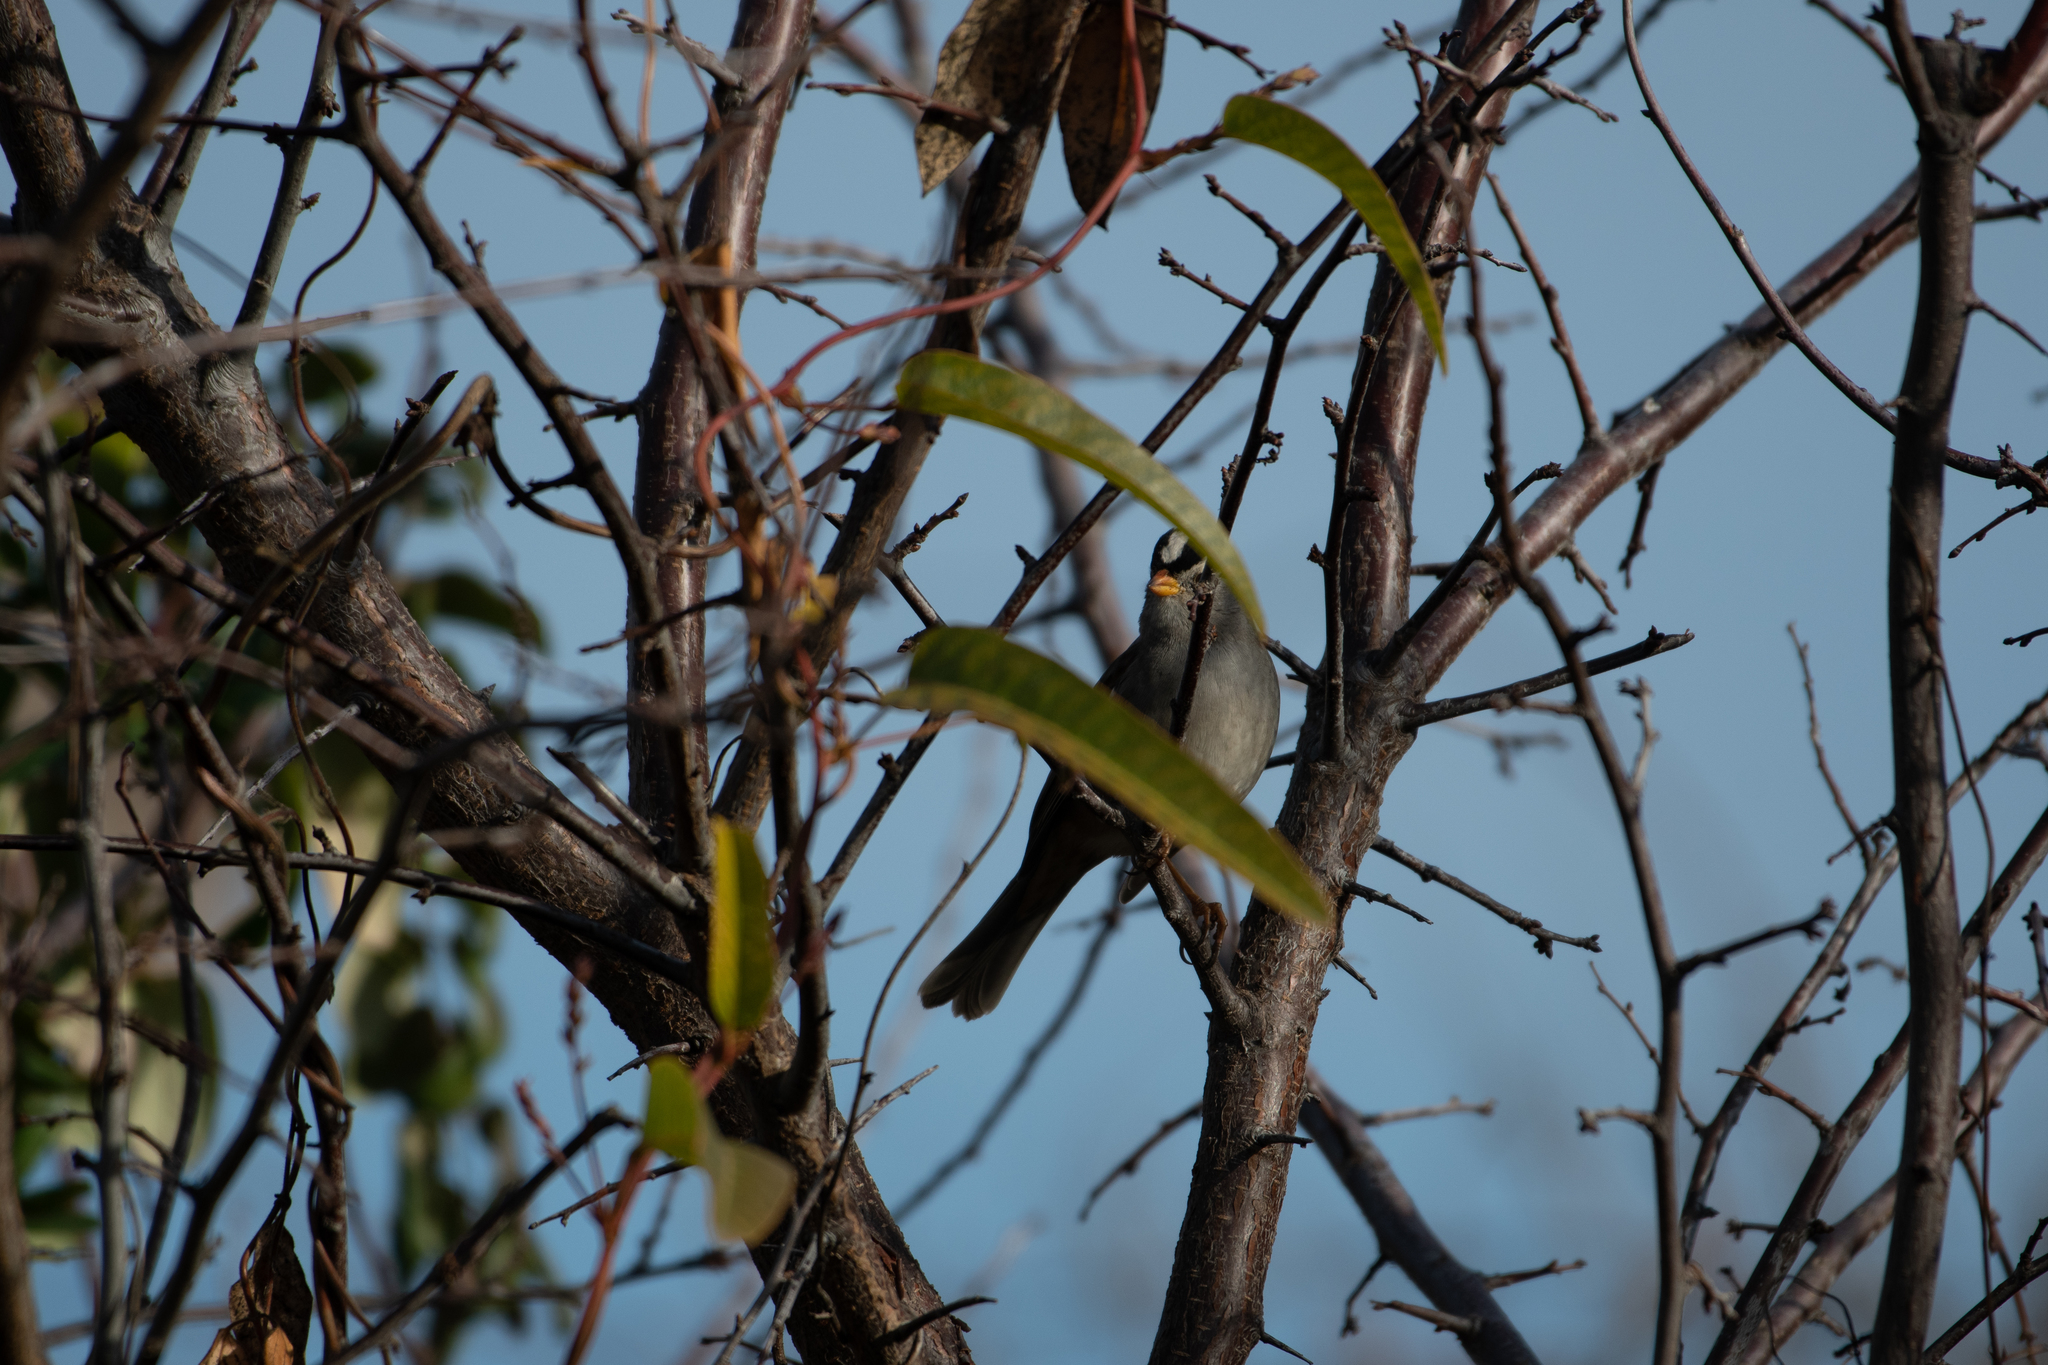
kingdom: Animalia
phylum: Chordata
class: Aves
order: Passeriformes
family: Passerellidae
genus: Zonotrichia
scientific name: Zonotrichia leucophrys
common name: White-crowned sparrow
